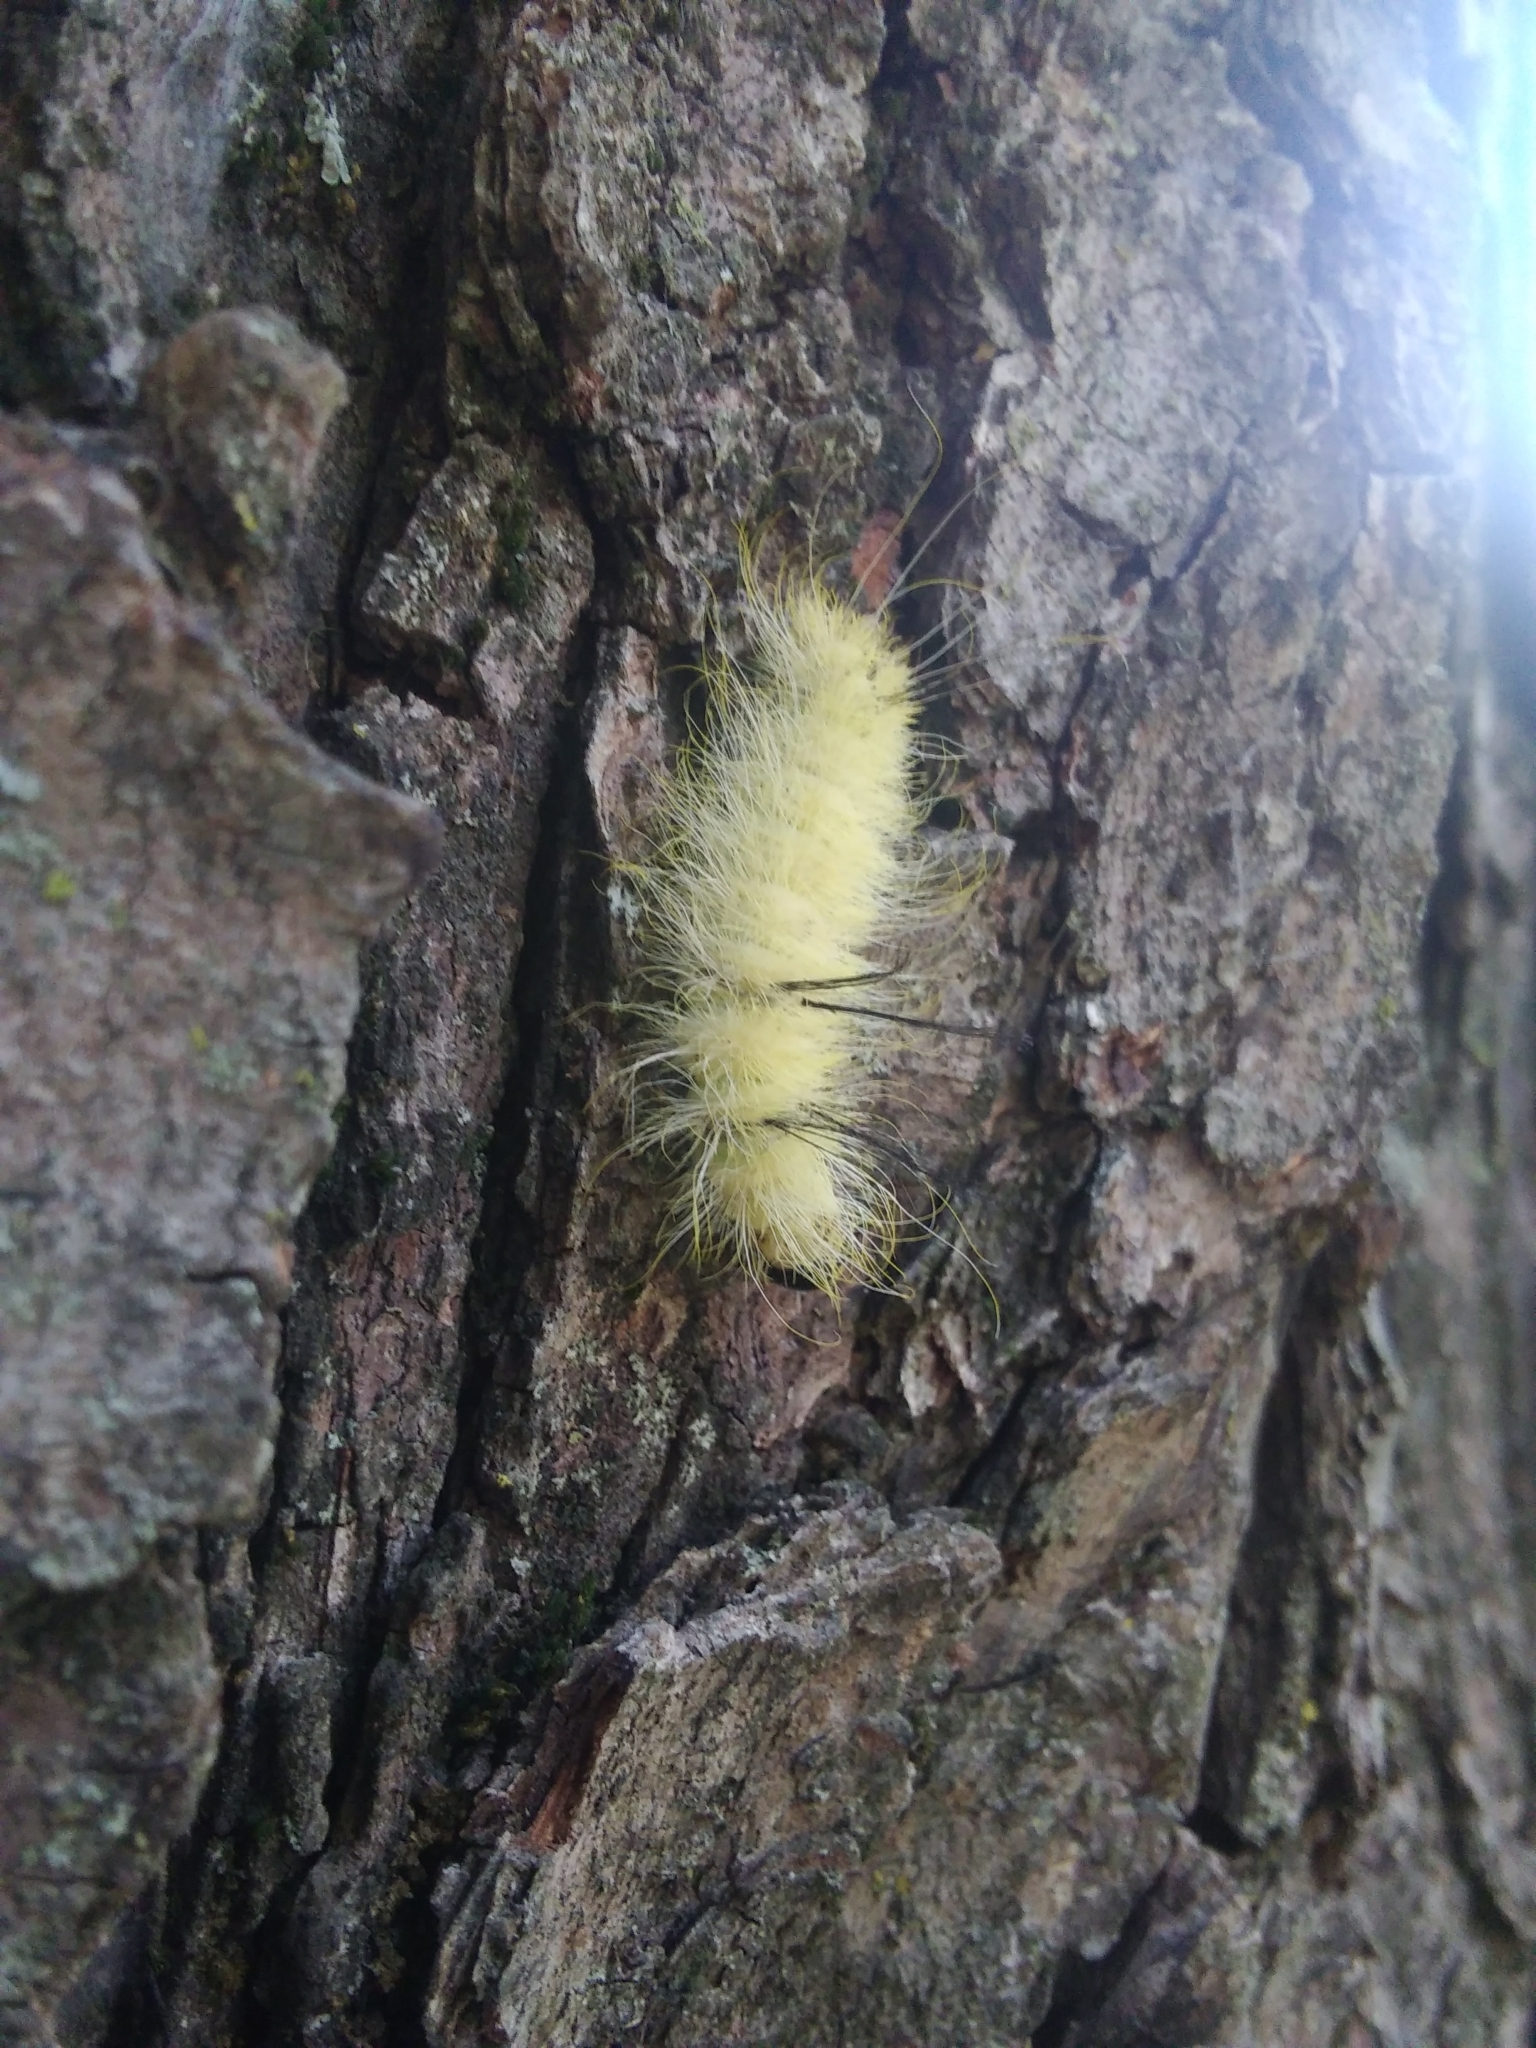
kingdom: Animalia
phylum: Arthropoda
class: Insecta
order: Lepidoptera
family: Noctuidae
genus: Acronicta
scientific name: Acronicta americana
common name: American dagger
